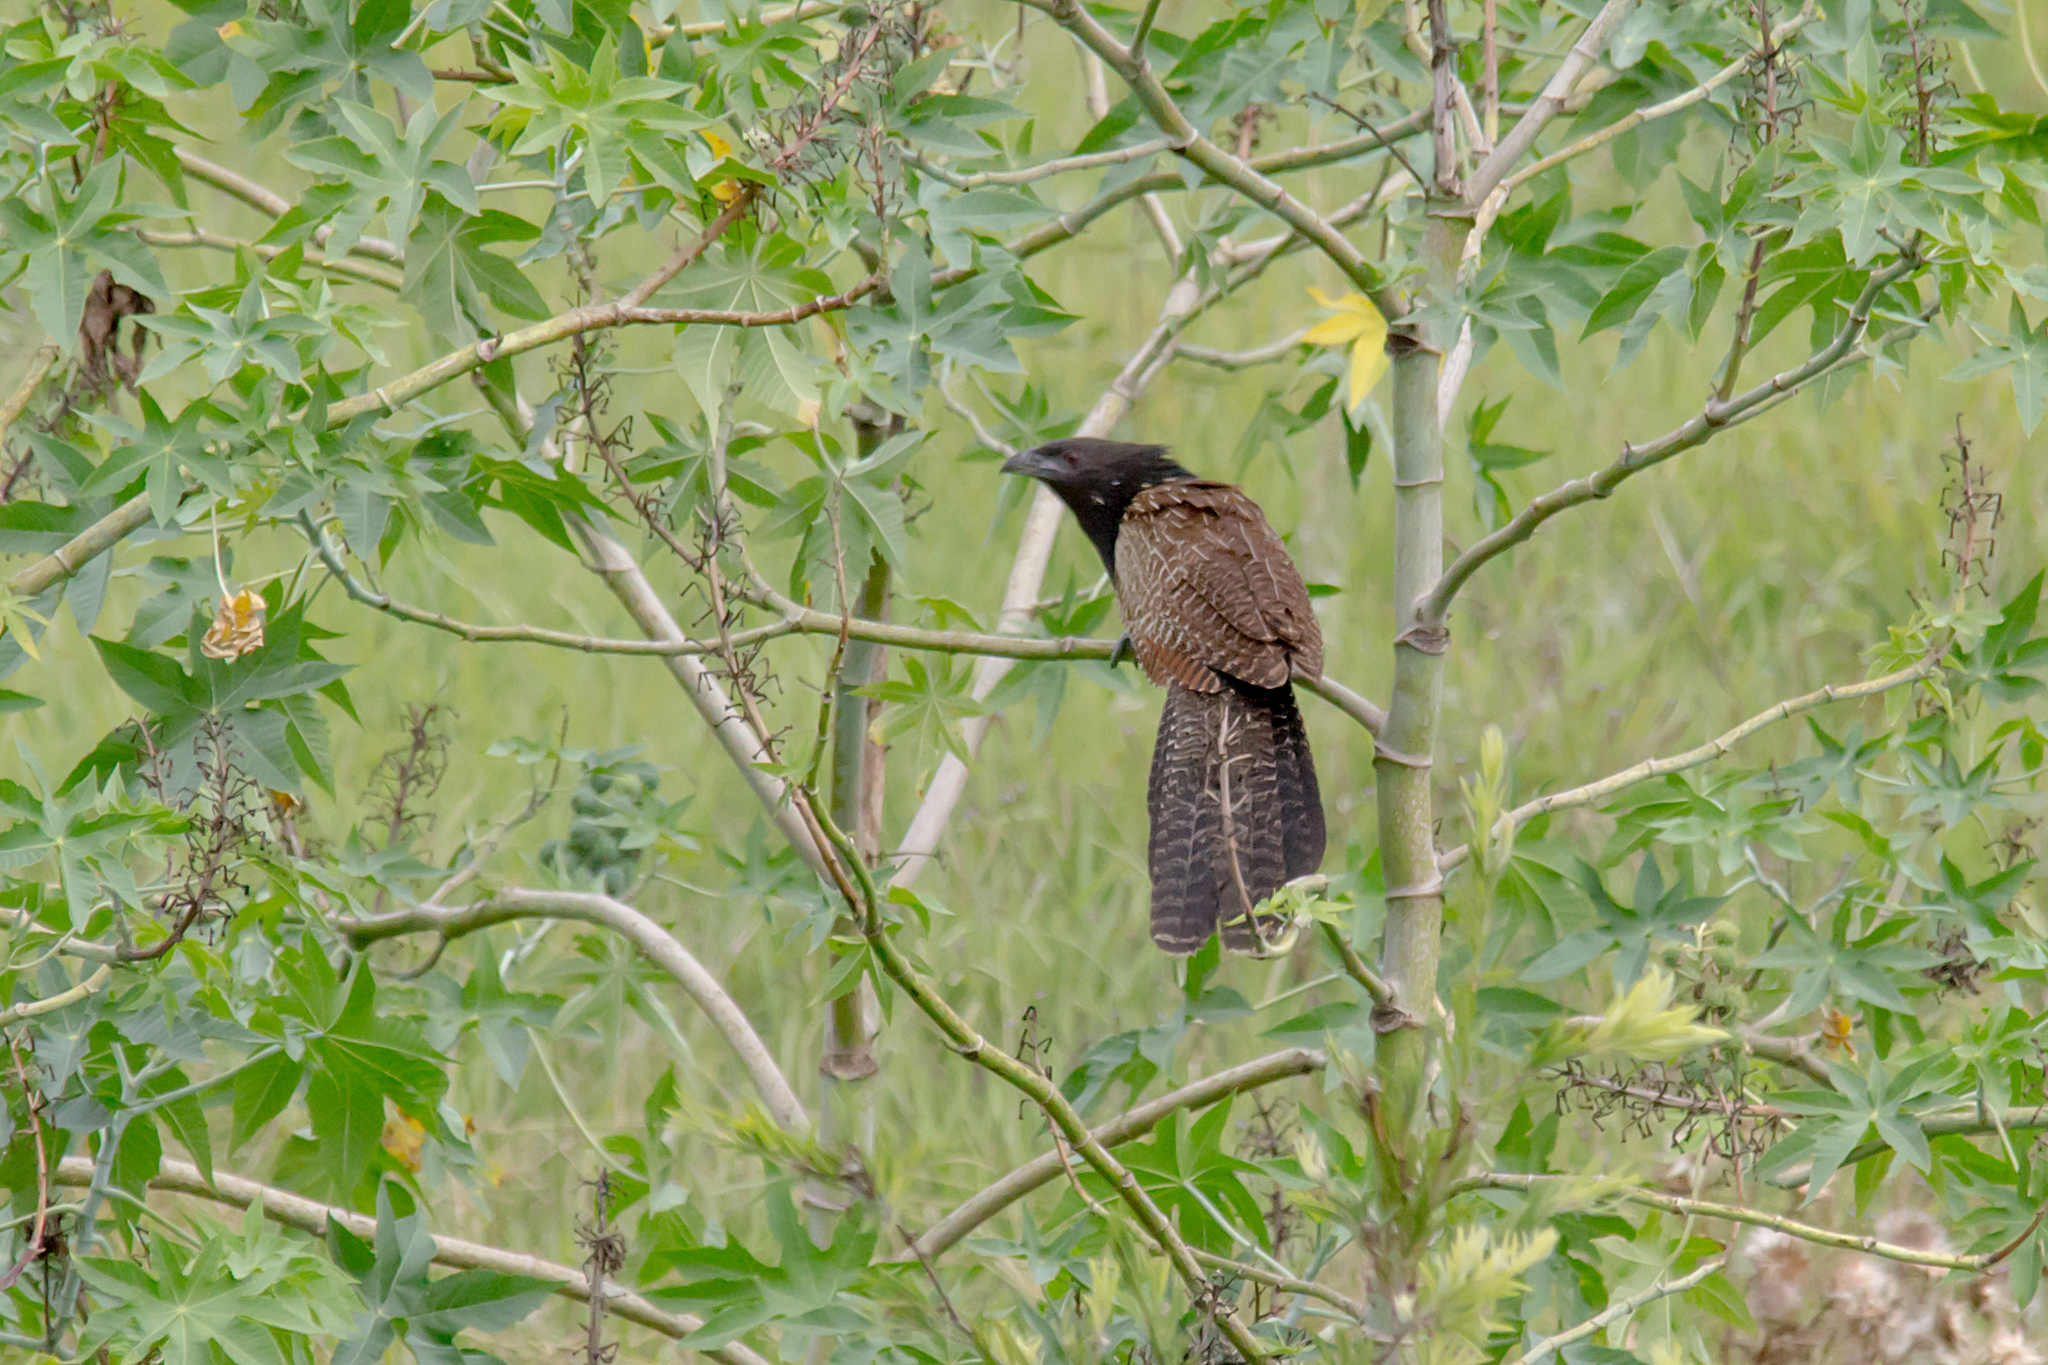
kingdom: Animalia
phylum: Chordata
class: Aves
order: Cuculiformes
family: Cuculidae
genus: Centropus
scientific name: Centropus phasianinus
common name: Pheasant coucal
